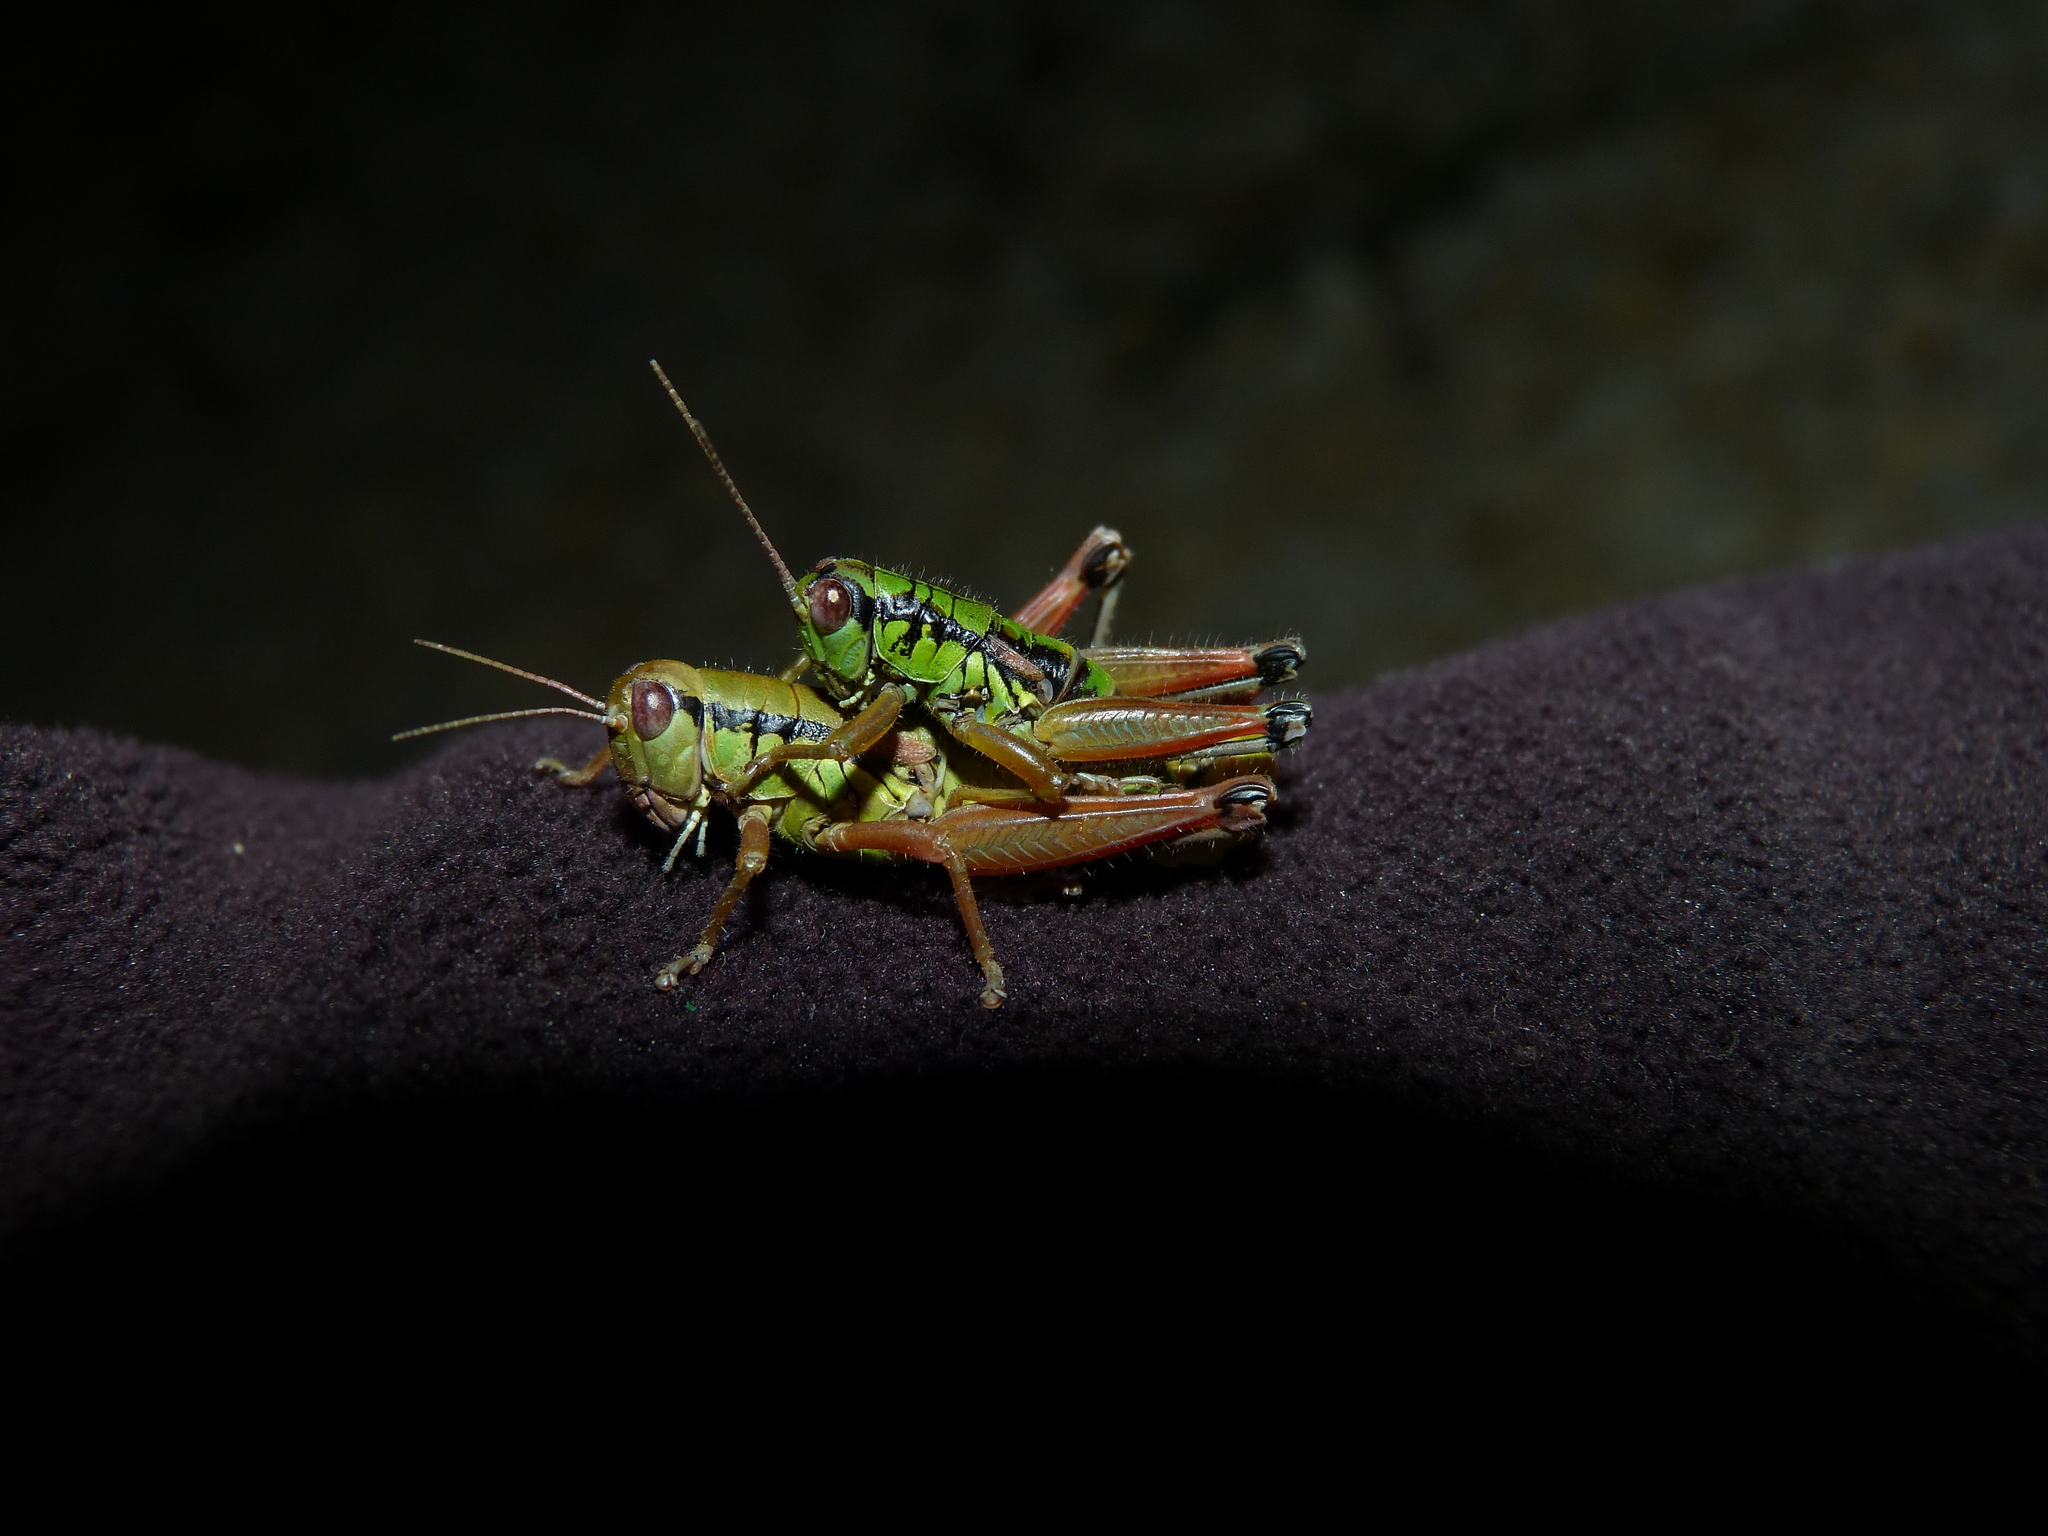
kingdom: Animalia
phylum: Arthropoda
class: Insecta
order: Orthoptera
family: Acrididae
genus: Pseudopodisma
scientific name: Pseudopodisma fieberi
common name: Fieber's mountain grasshopper
